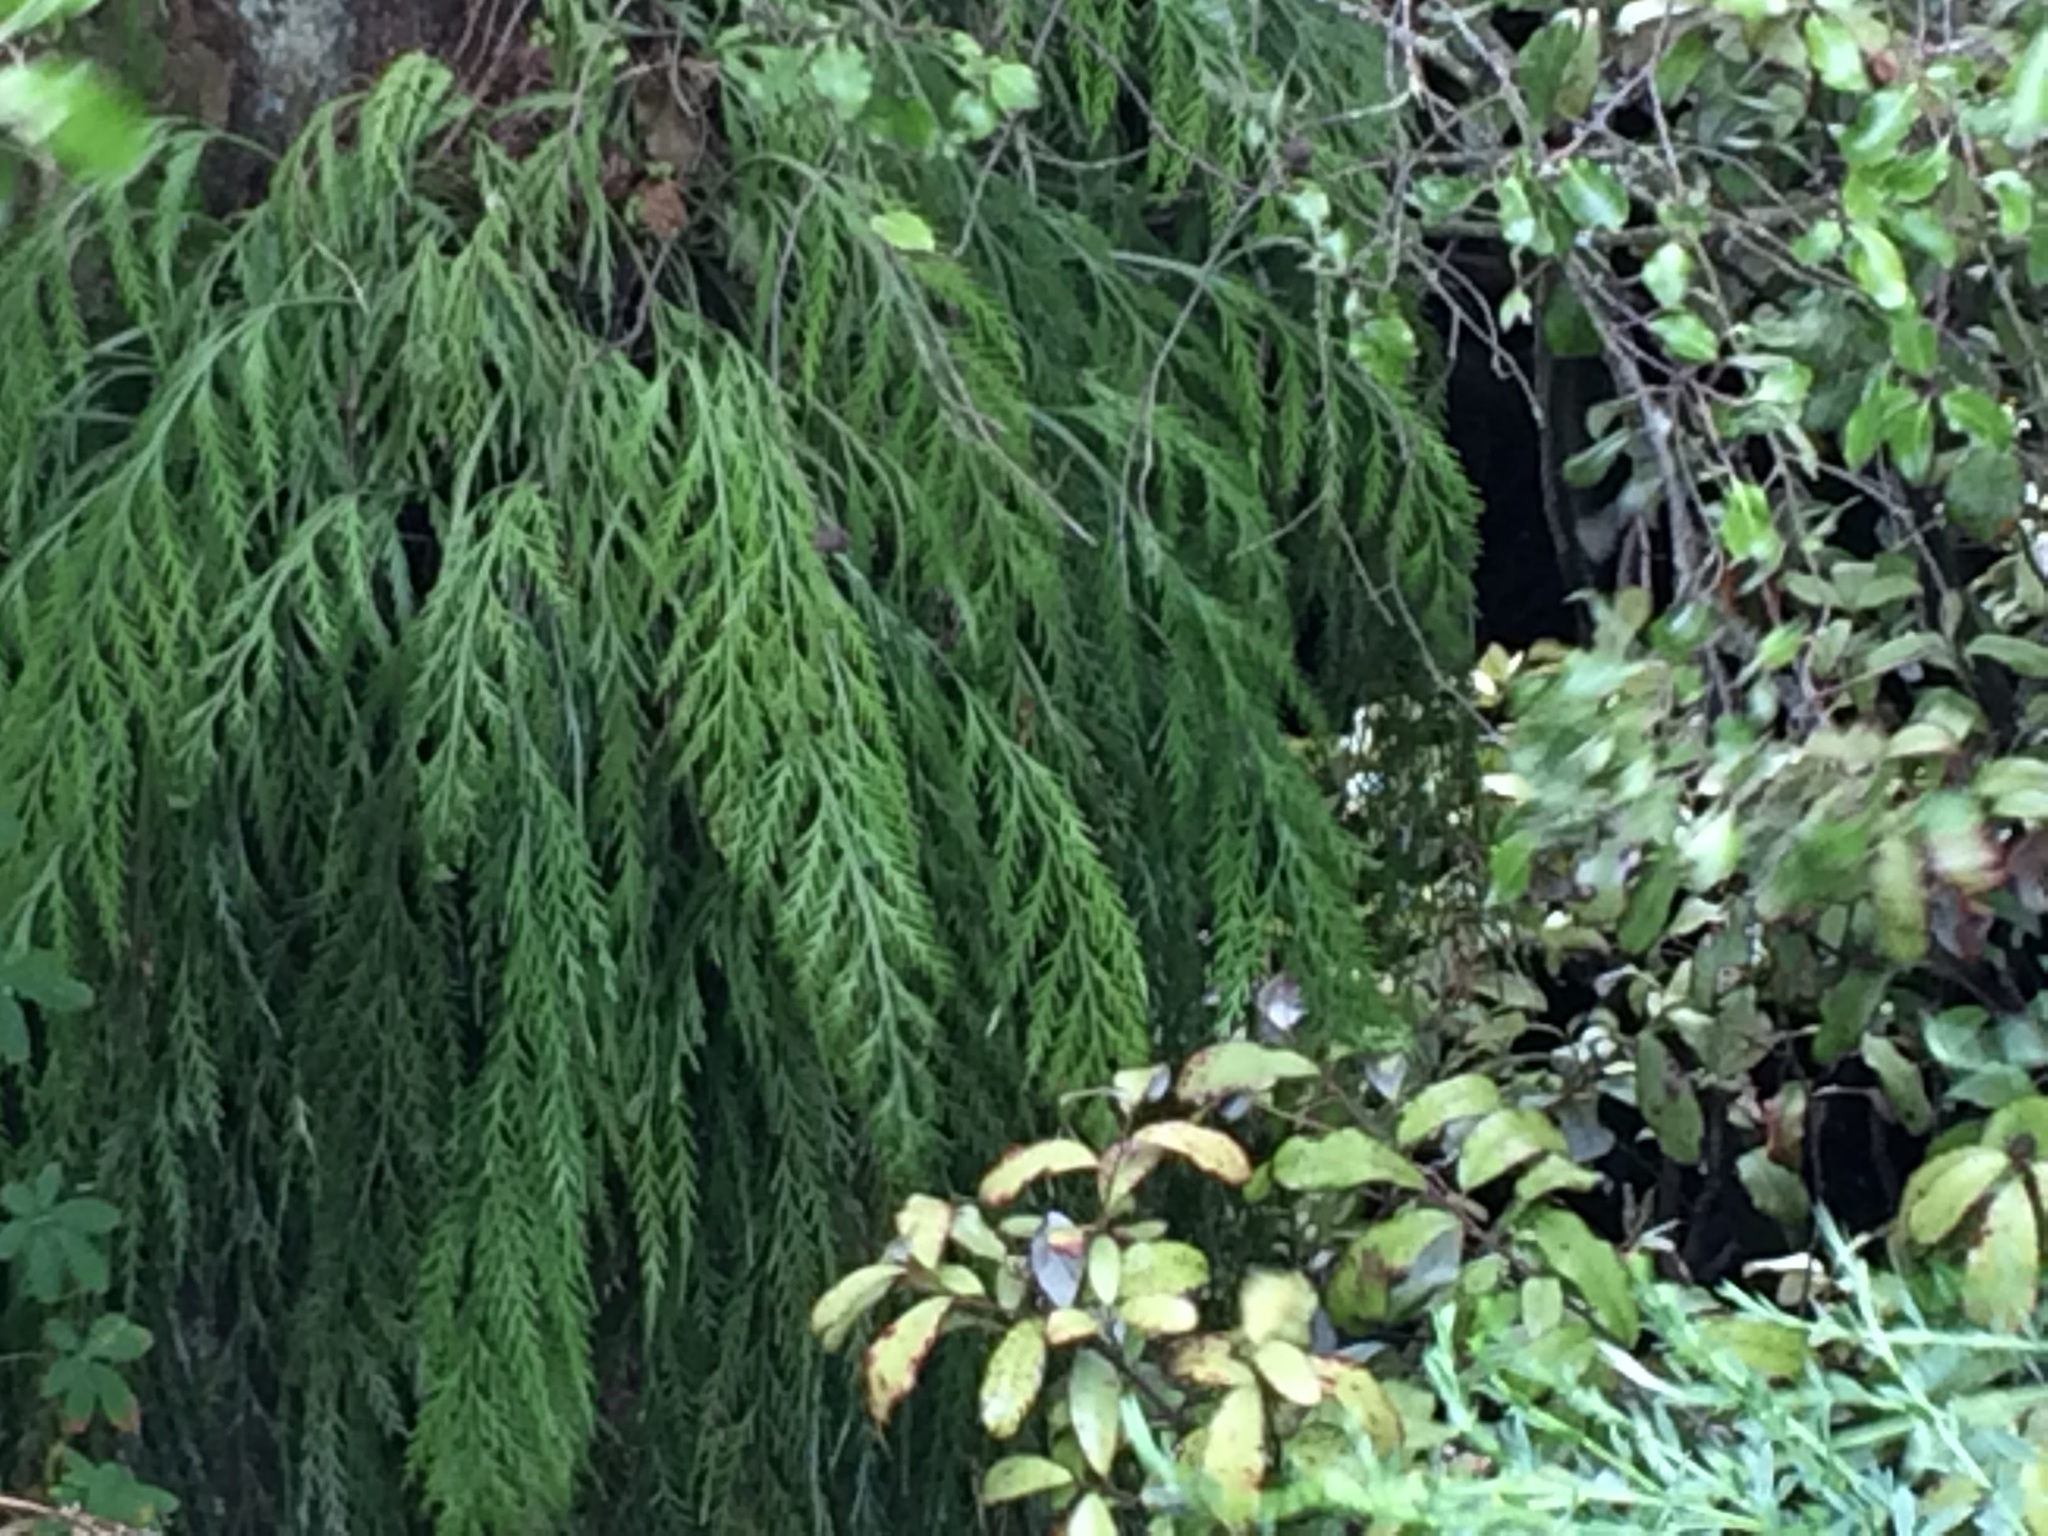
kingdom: Plantae
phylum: Tracheophyta
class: Polypodiopsida
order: Polypodiales
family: Aspleniaceae
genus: Asplenium
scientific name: Asplenium flaccidum
